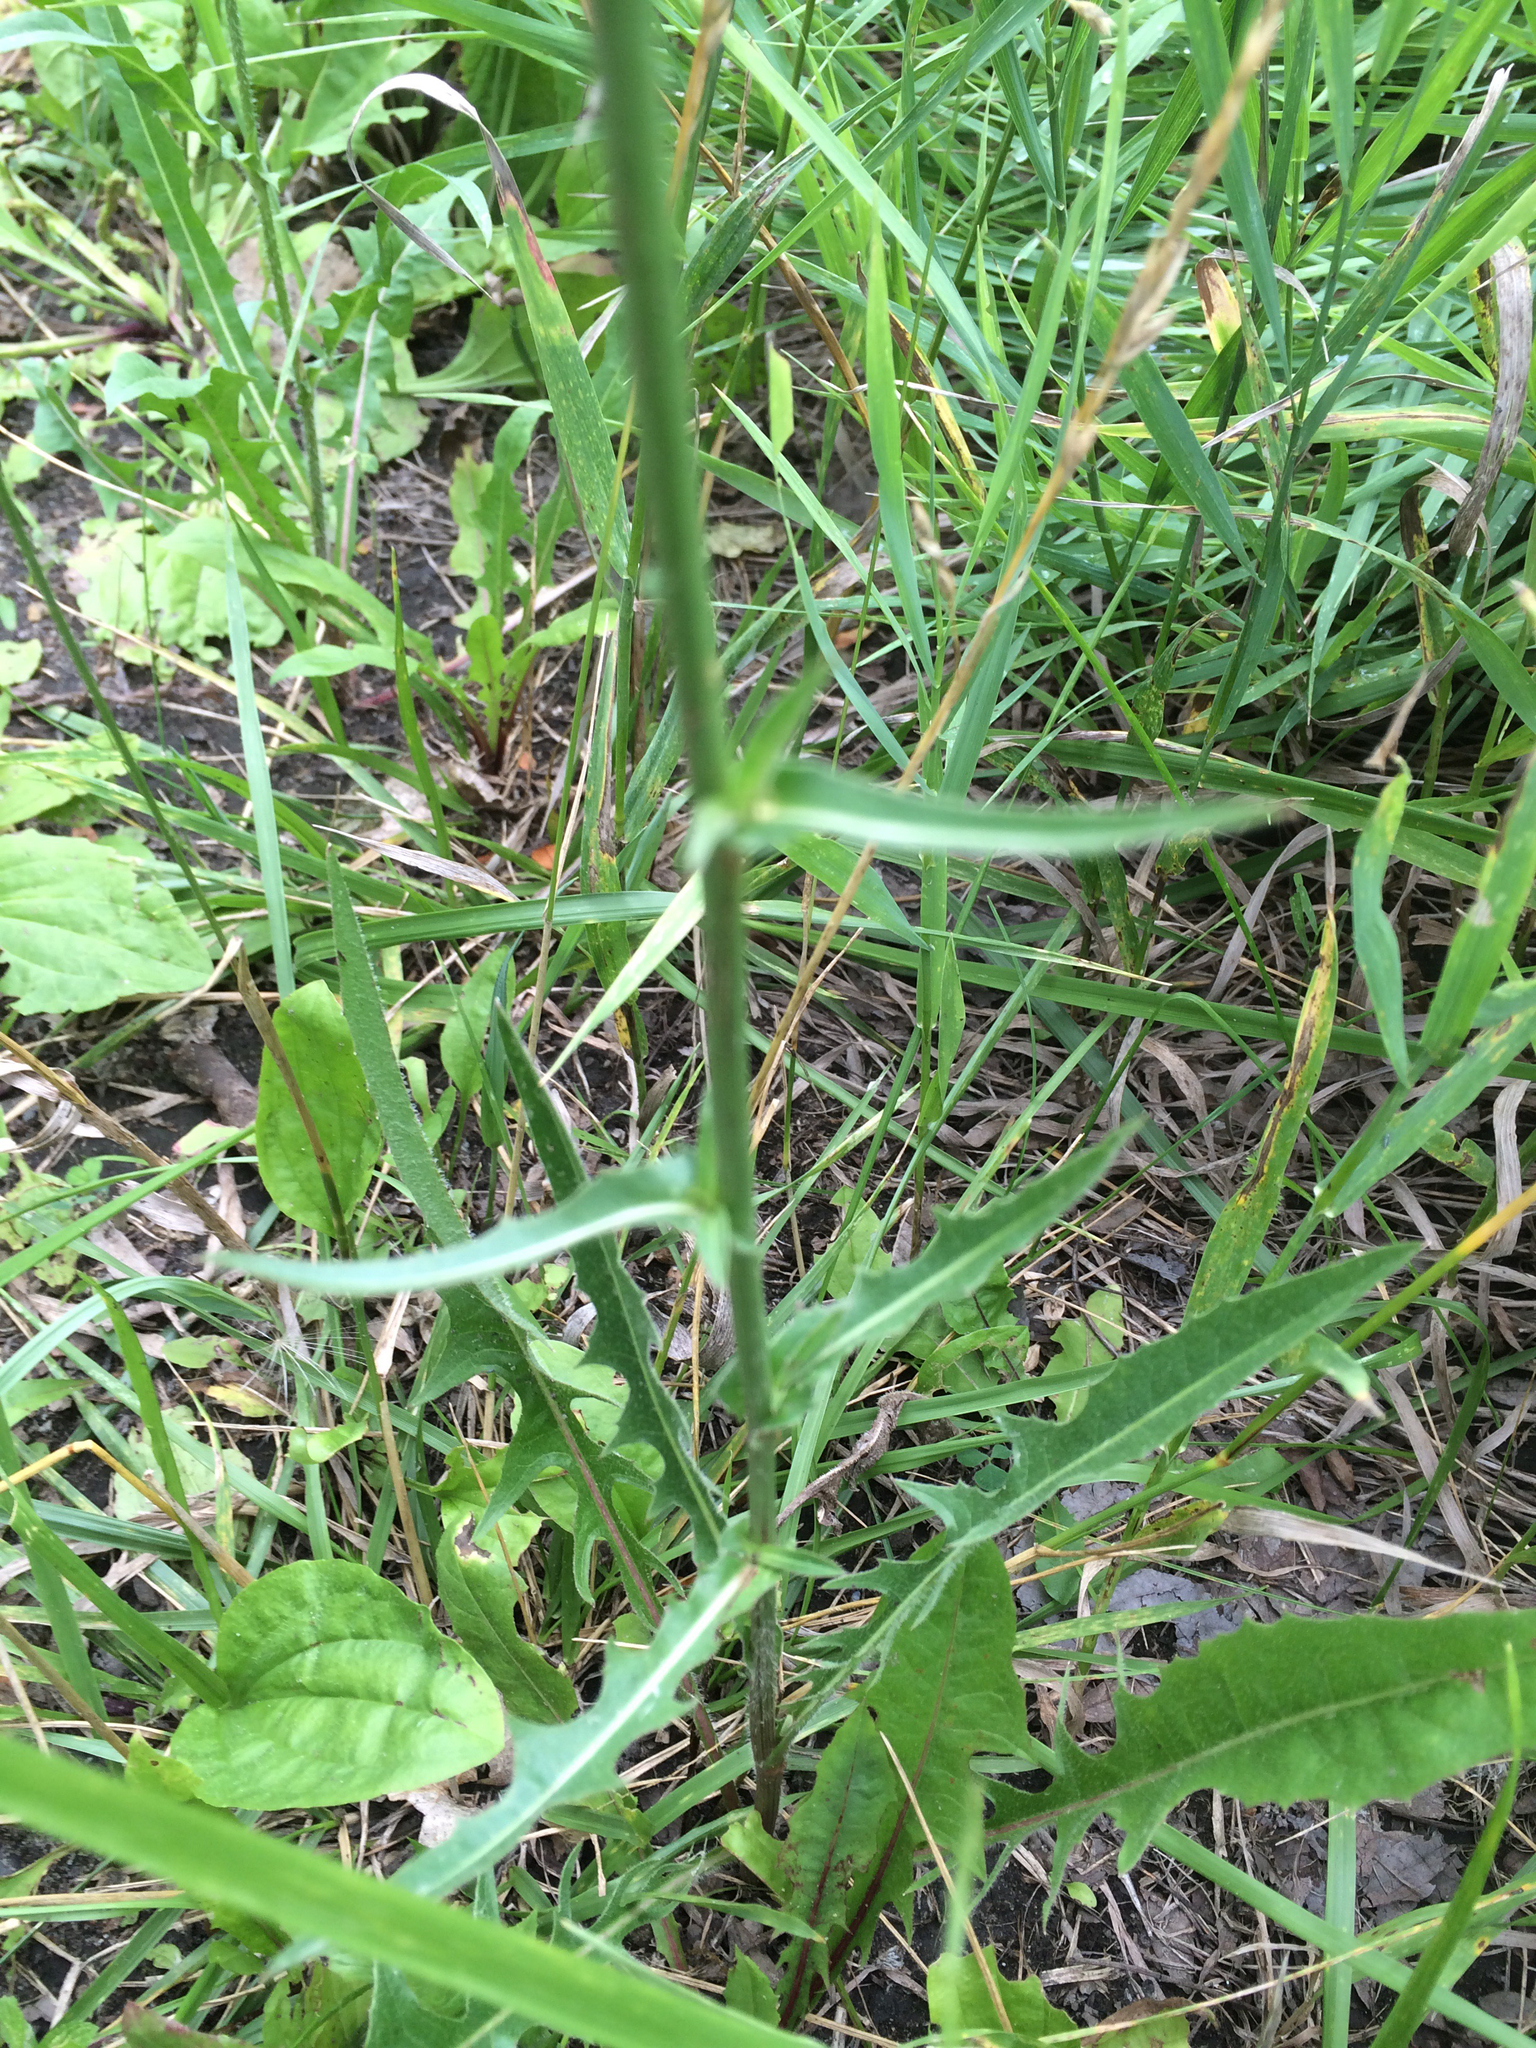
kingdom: Plantae
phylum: Tracheophyta
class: Magnoliopsida
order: Asterales
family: Asteraceae
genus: Cichorium
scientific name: Cichorium intybus
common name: Chicory
